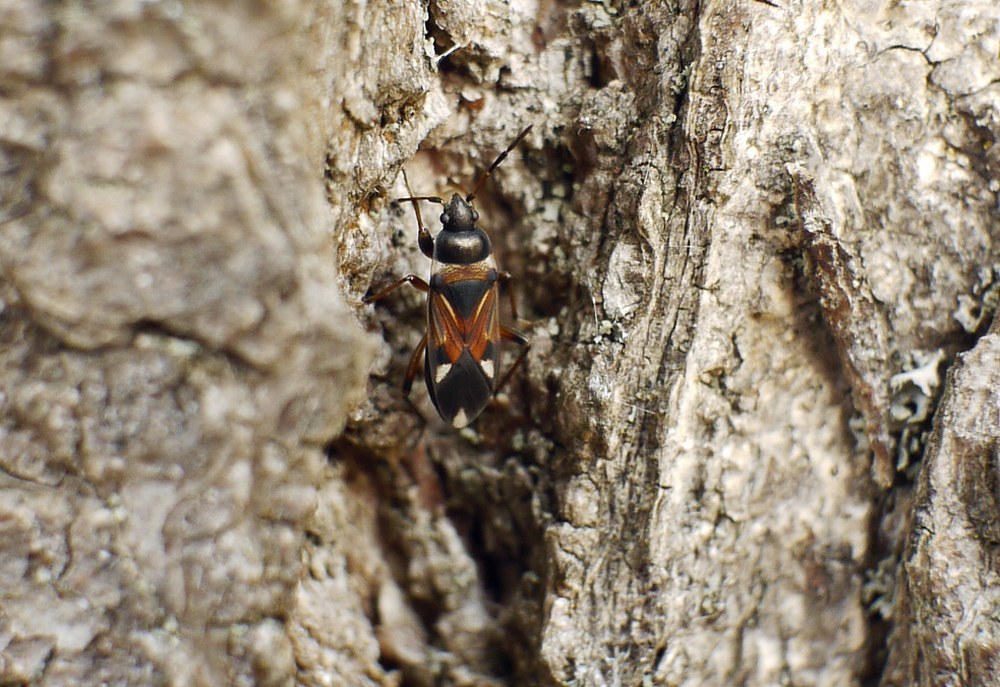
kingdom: Animalia
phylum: Arthropoda
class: Insecta
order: Hemiptera
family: Rhyparochromidae
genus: Raglius
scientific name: Raglius alboacuminatus
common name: Dirt-colored seed bug
